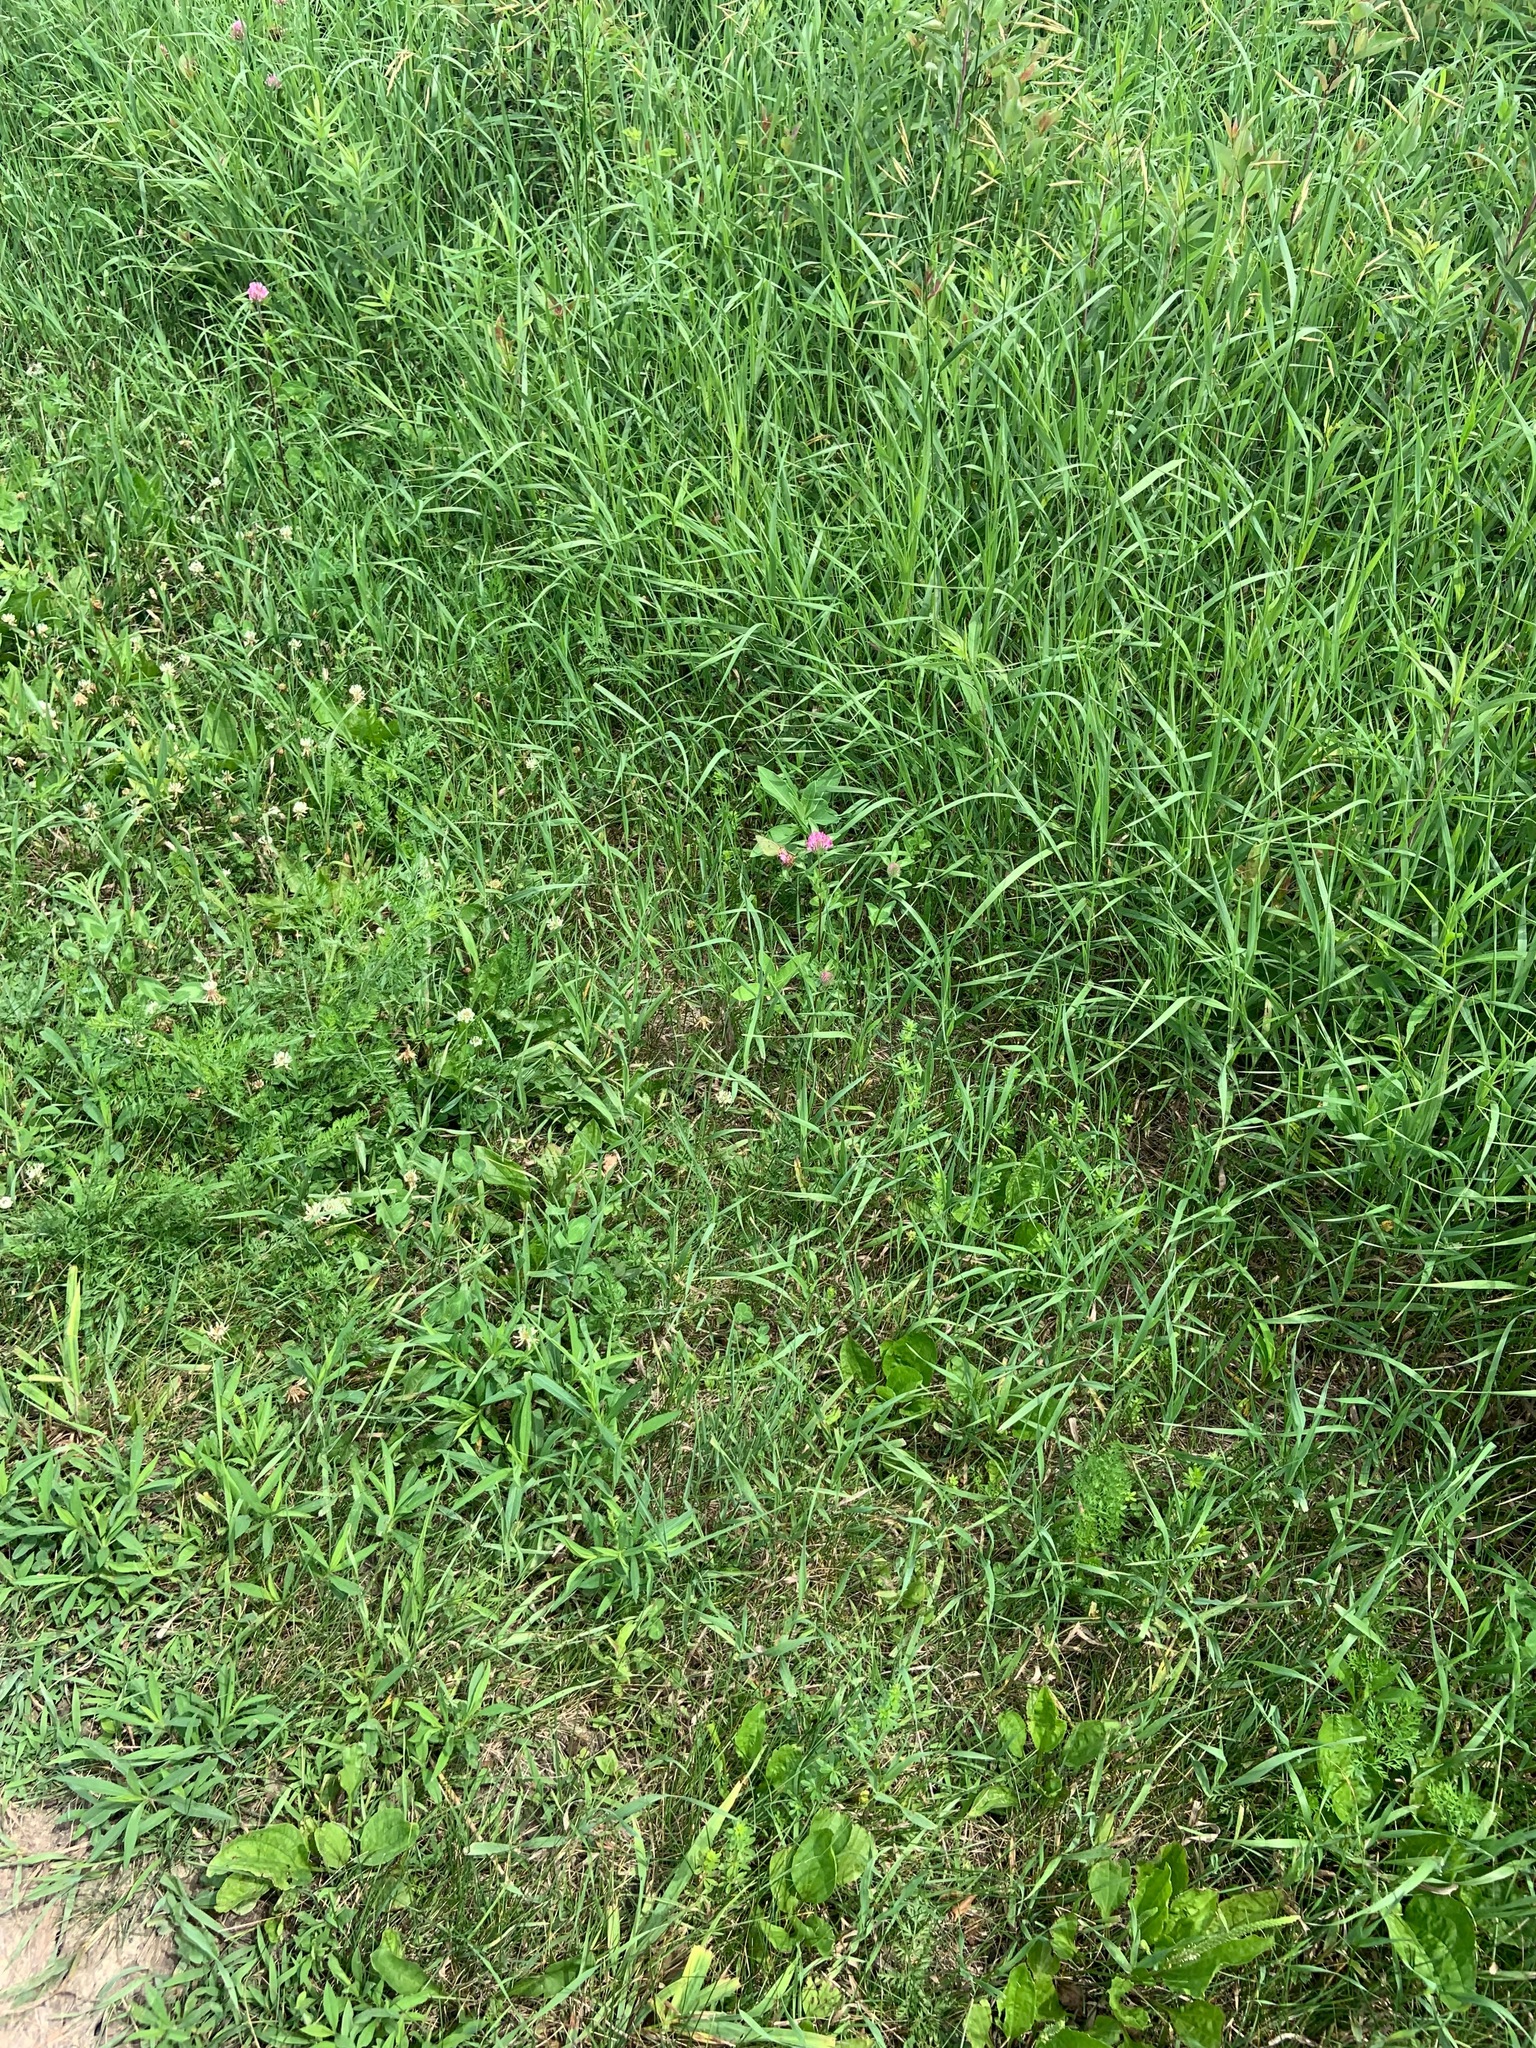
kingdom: Animalia
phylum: Arthropoda
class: Insecta
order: Lepidoptera
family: Pieridae
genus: Colias
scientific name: Colias philodice
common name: Clouded sulphur
